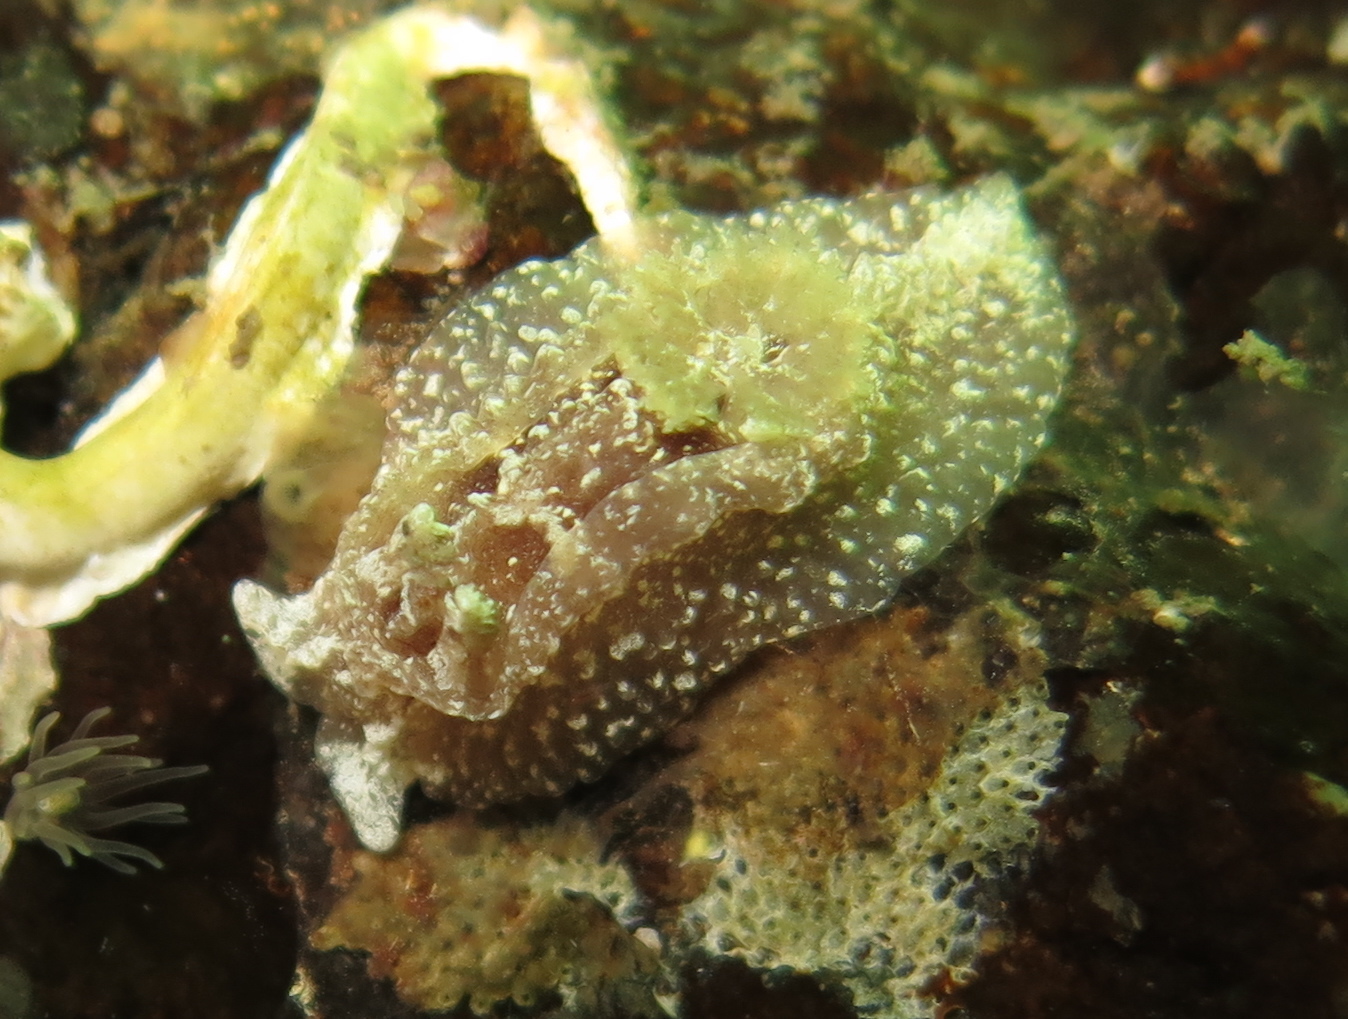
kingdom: Animalia
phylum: Mollusca
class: Gastropoda
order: Nudibranchia
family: Goniodorididae
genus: Pelagella
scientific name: Pelagella castanea
